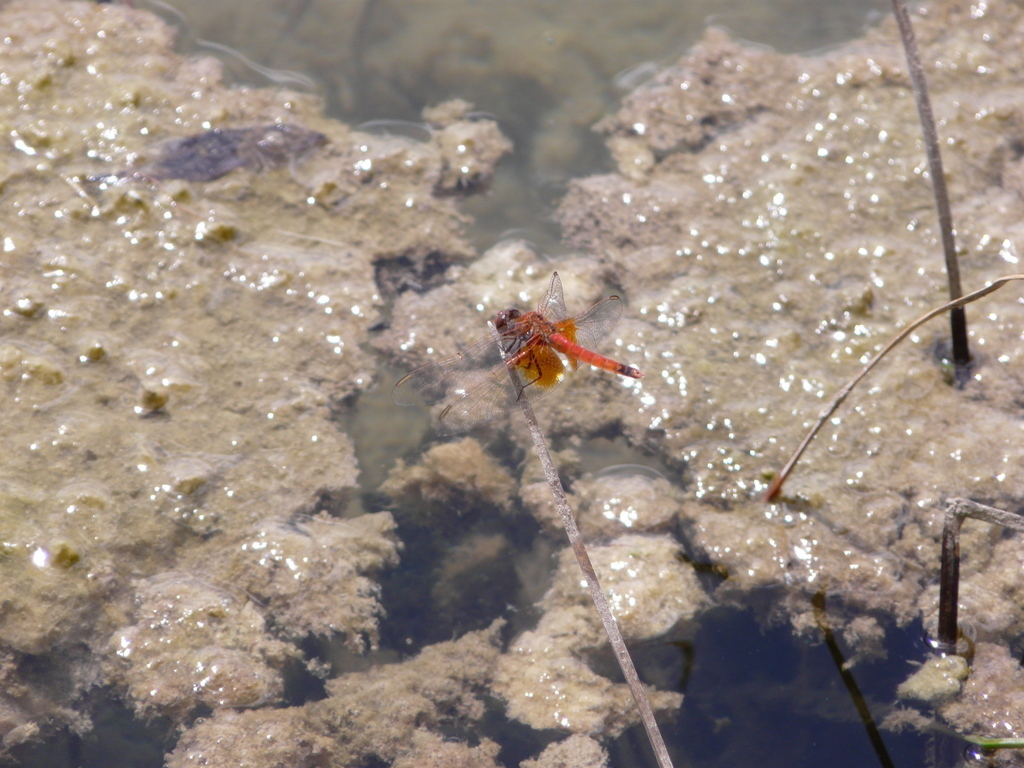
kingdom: Animalia
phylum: Arthropoda
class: Insecta
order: Odonata
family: Libellulidae
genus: Erythrodiplax
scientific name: Erythrodiplax corallina
